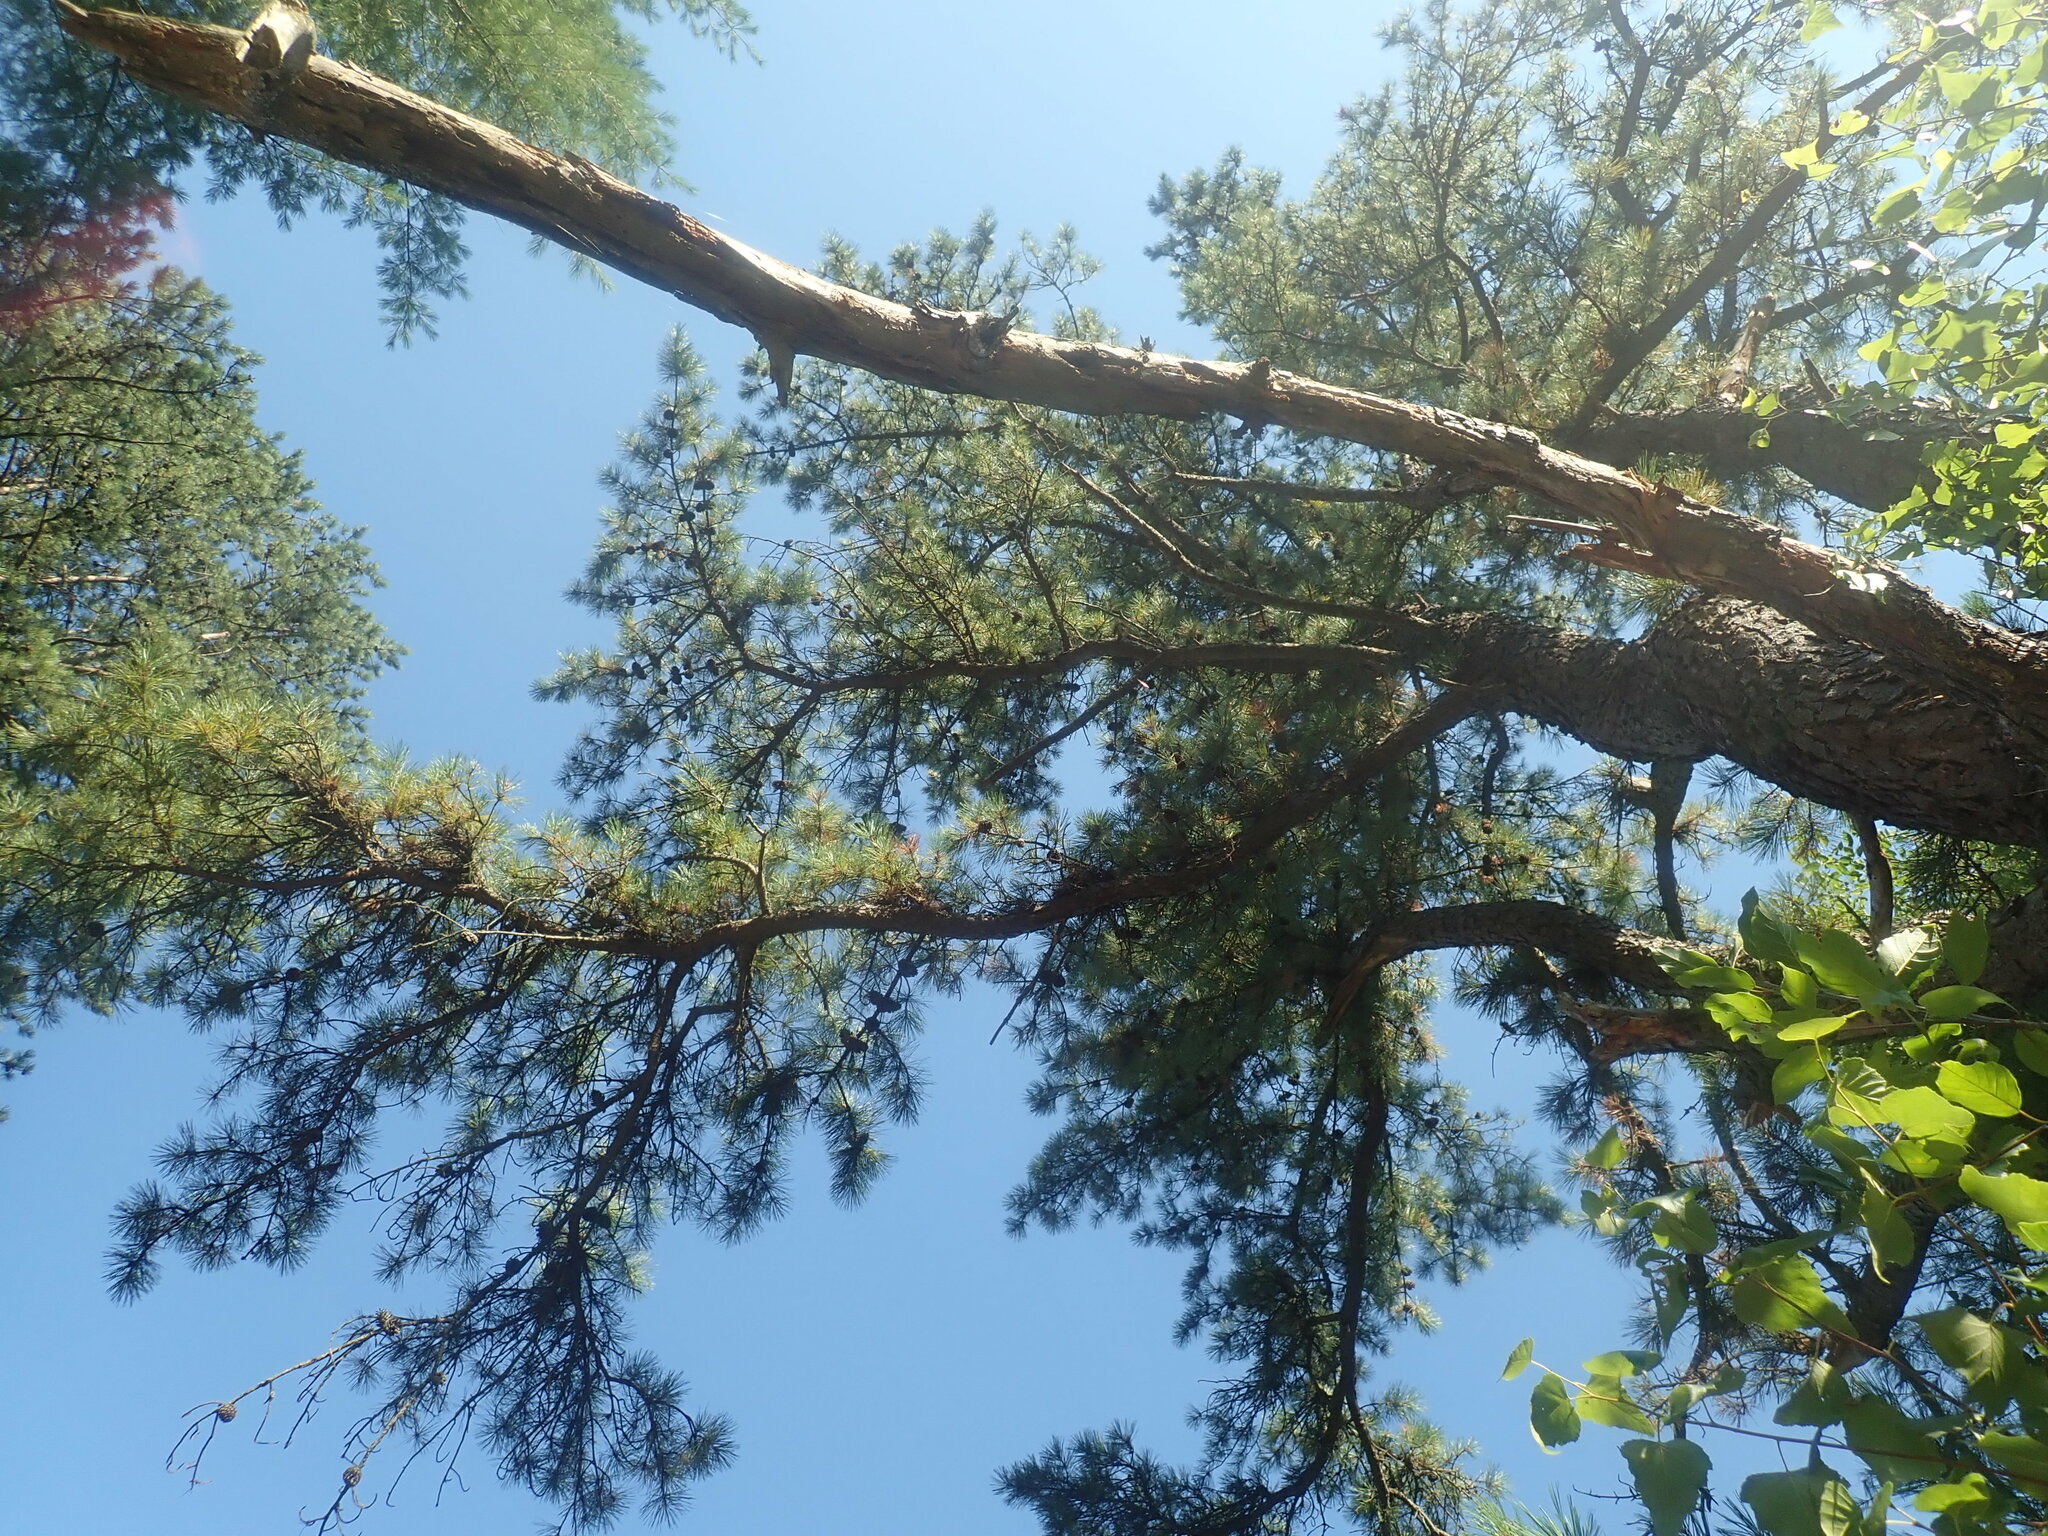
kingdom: Plantae
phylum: Tracheophyta
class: Pinopsida
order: Pinales
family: Pinaceae
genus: Pinus
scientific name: Pinus rigida
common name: Pitch pine
